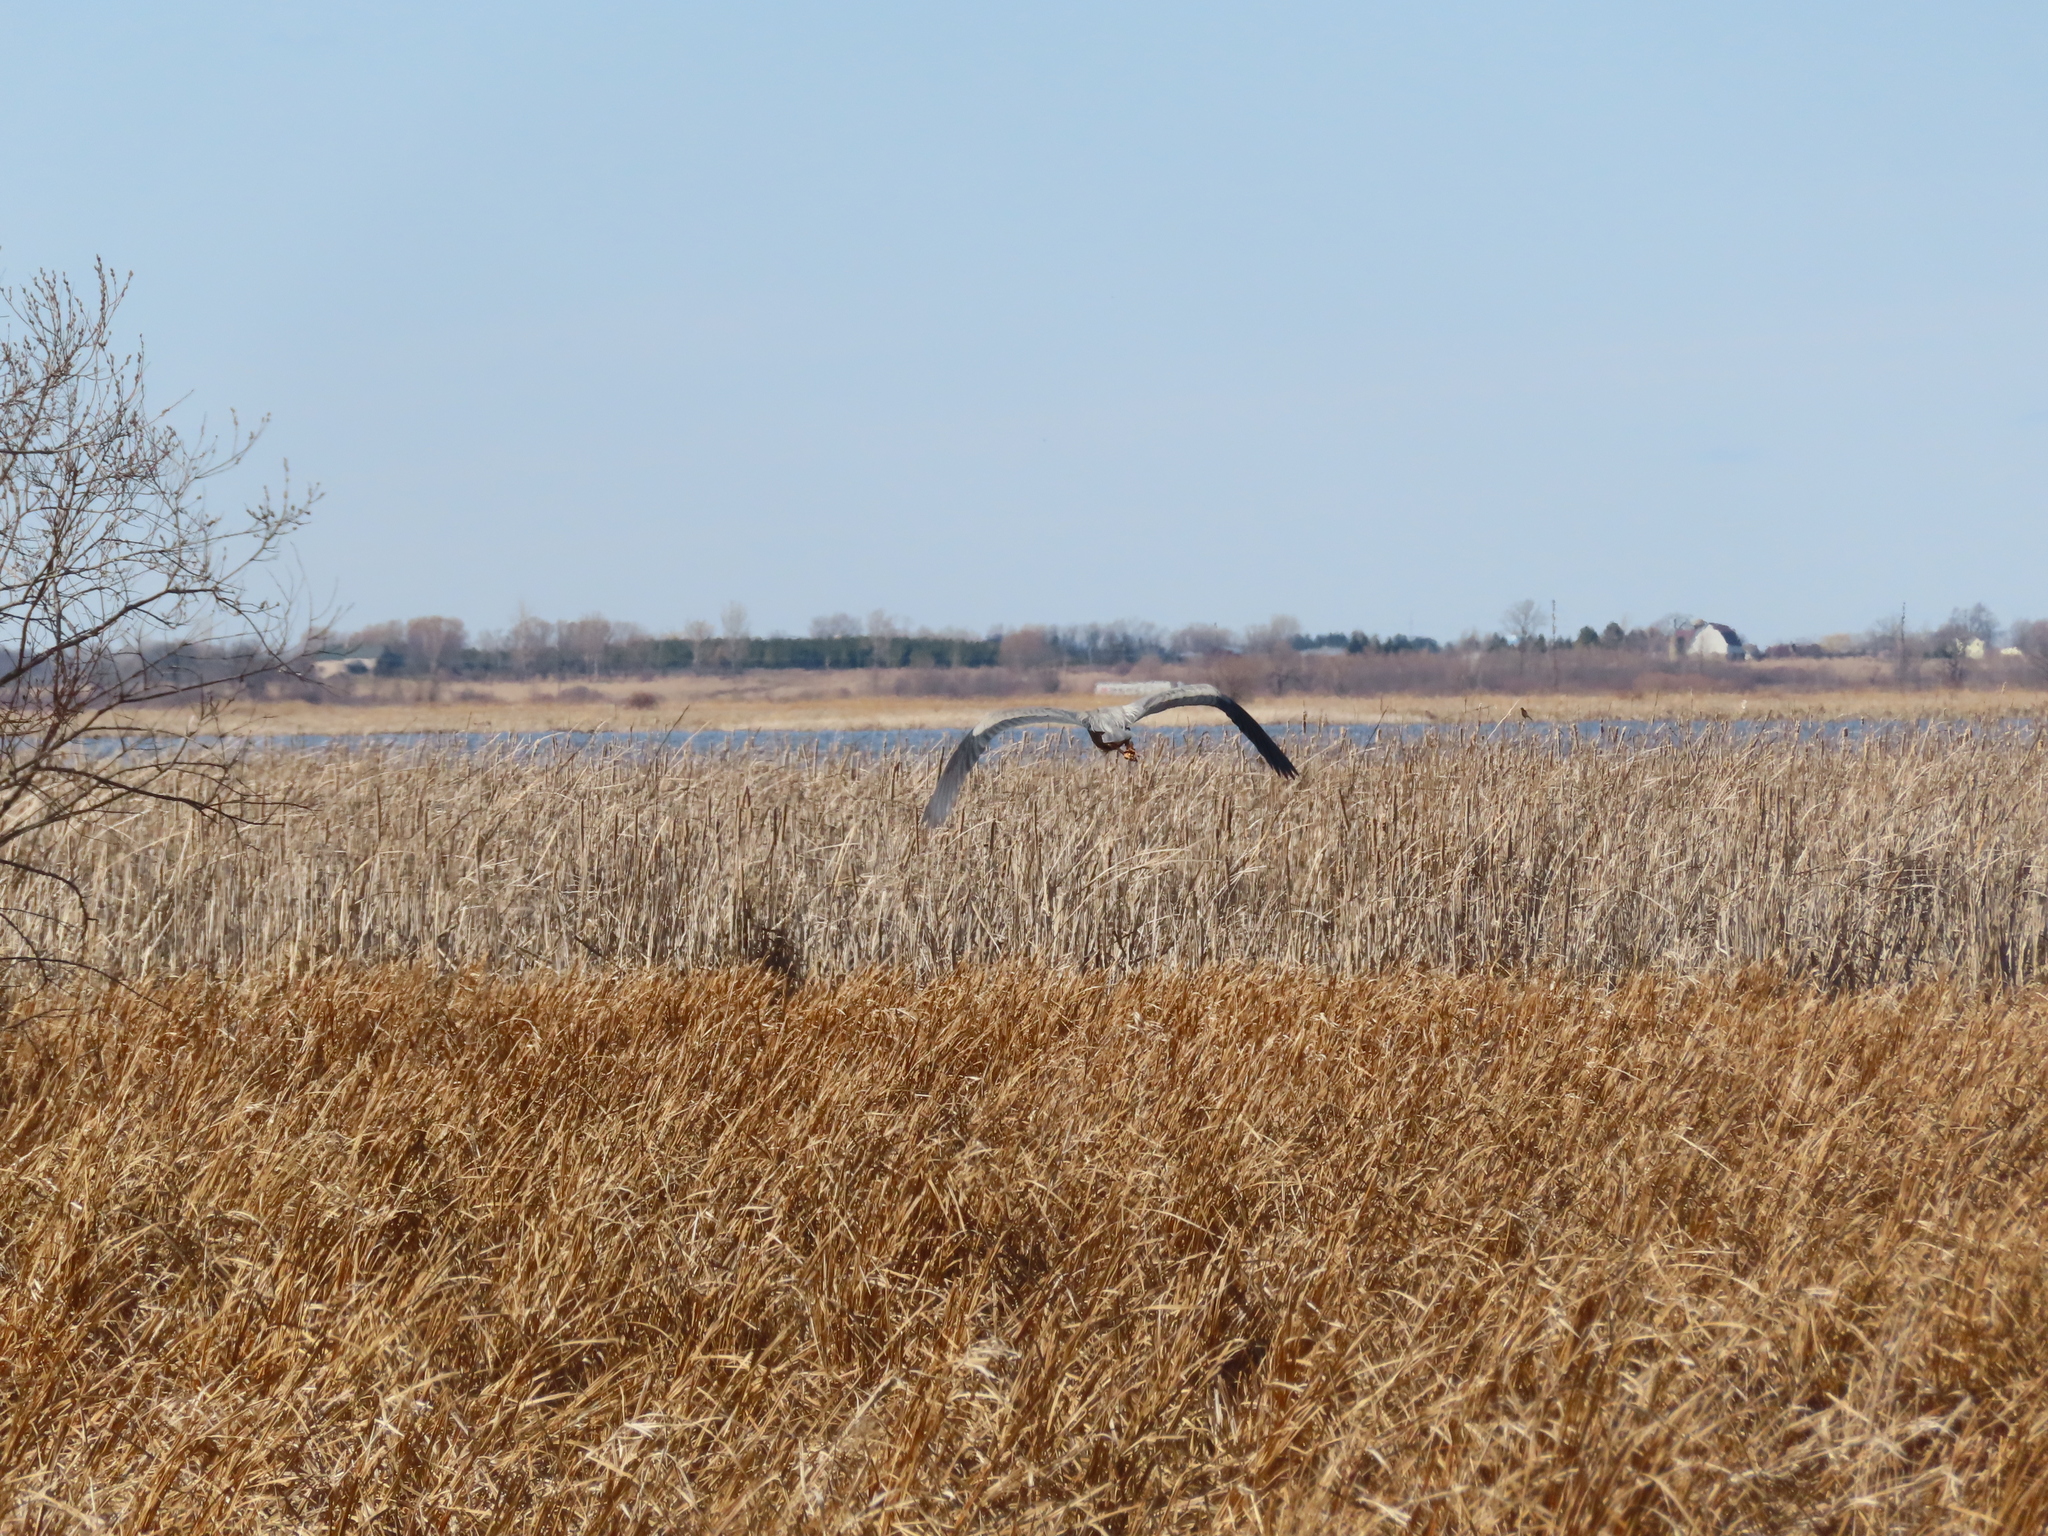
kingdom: Animalia
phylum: Chordata
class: Aves
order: Pelecaniformes
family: Ardeidae
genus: Ardea
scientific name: Ardea herodias
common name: Great blue heron
